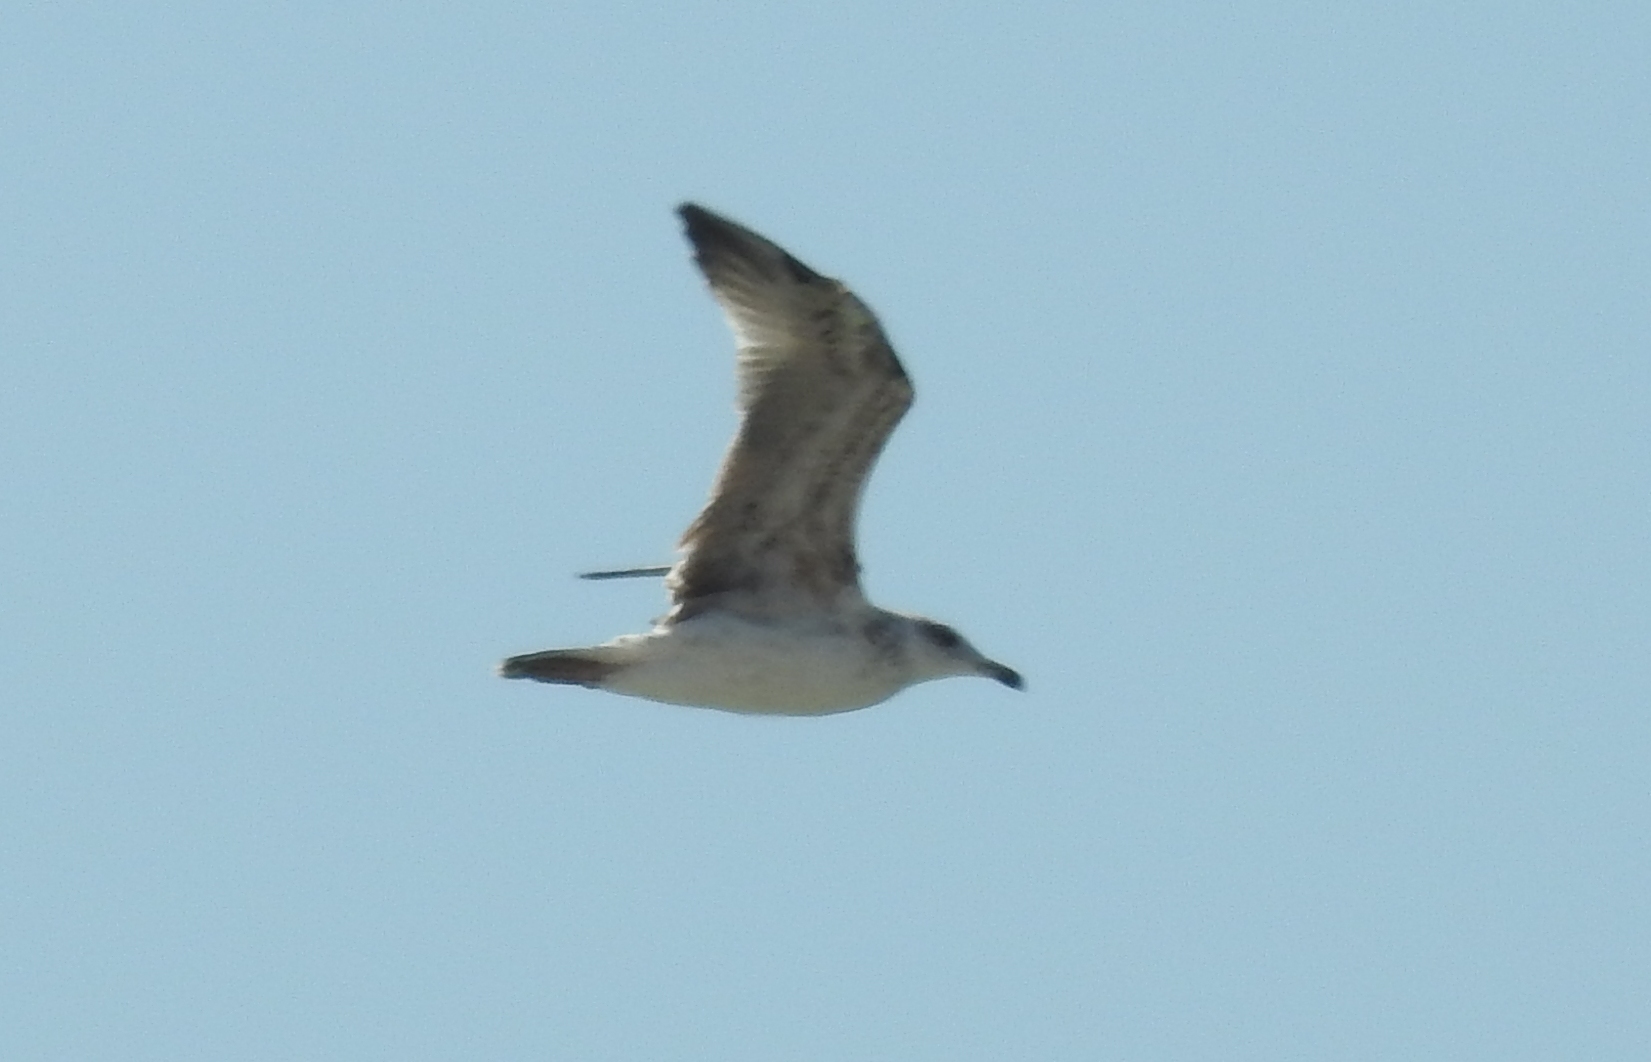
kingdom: Animalia
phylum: Chordata
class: Aves
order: Charadriiformes
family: Laridae
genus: Larus
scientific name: Larus michahellis
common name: Yellow-legged gull
